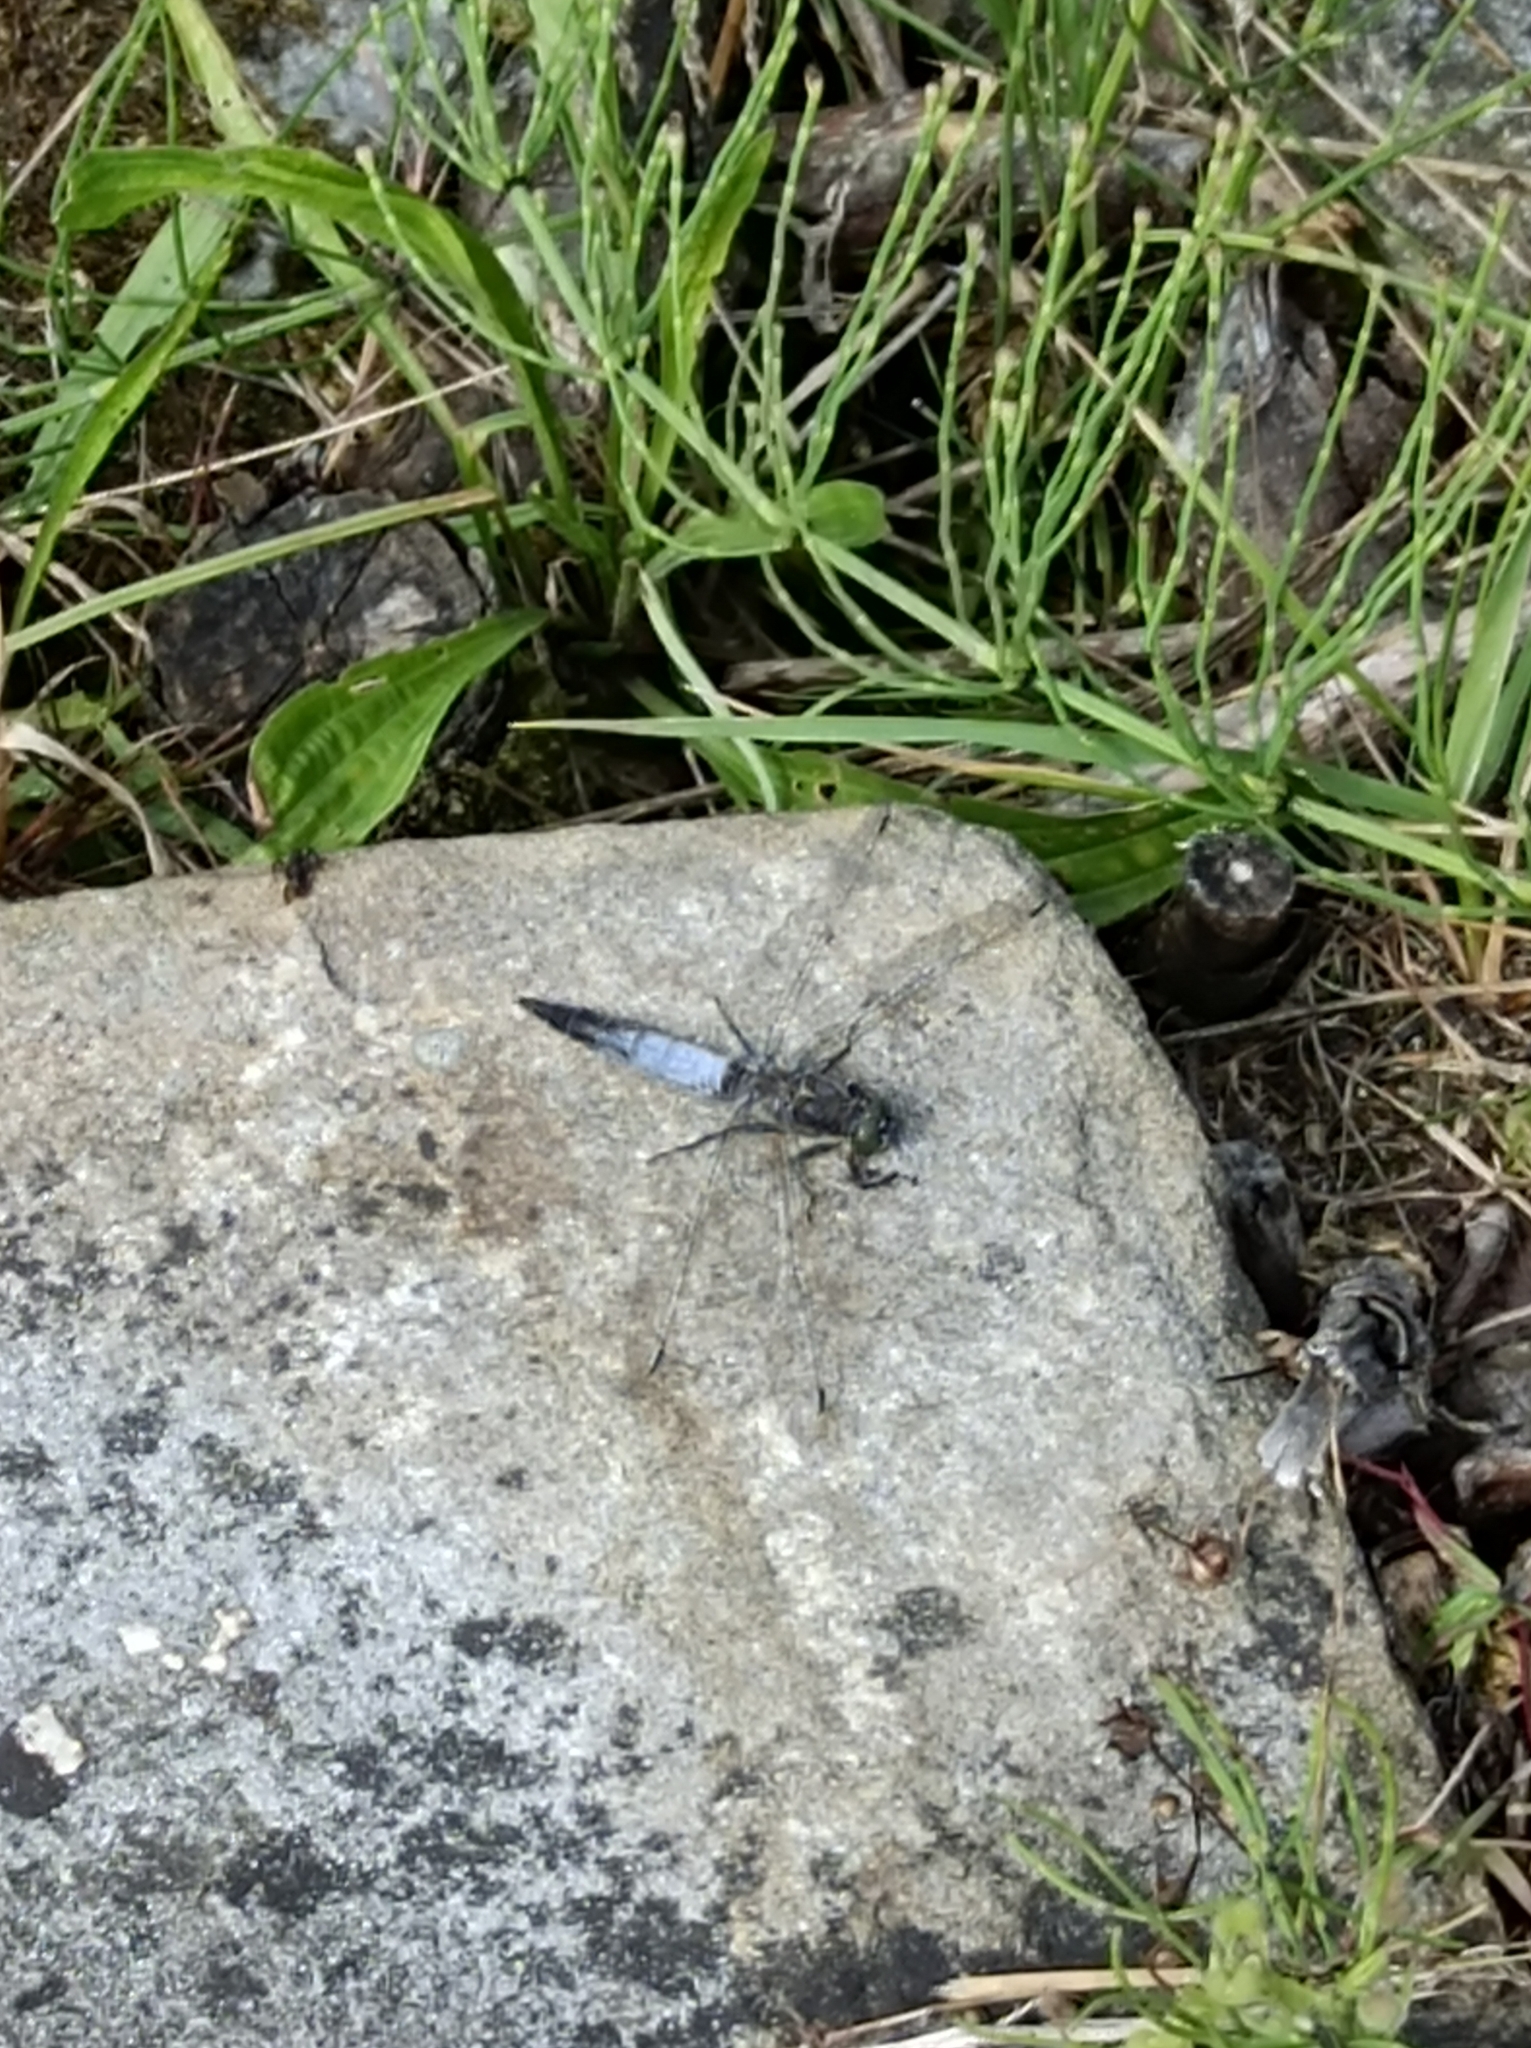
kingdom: Animalia
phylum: Arthropoda
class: Insecta
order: Odonata
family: Libellulidae
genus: Orthetrum
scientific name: Orthetrum cancellatum
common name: Black-tailed skimmer
